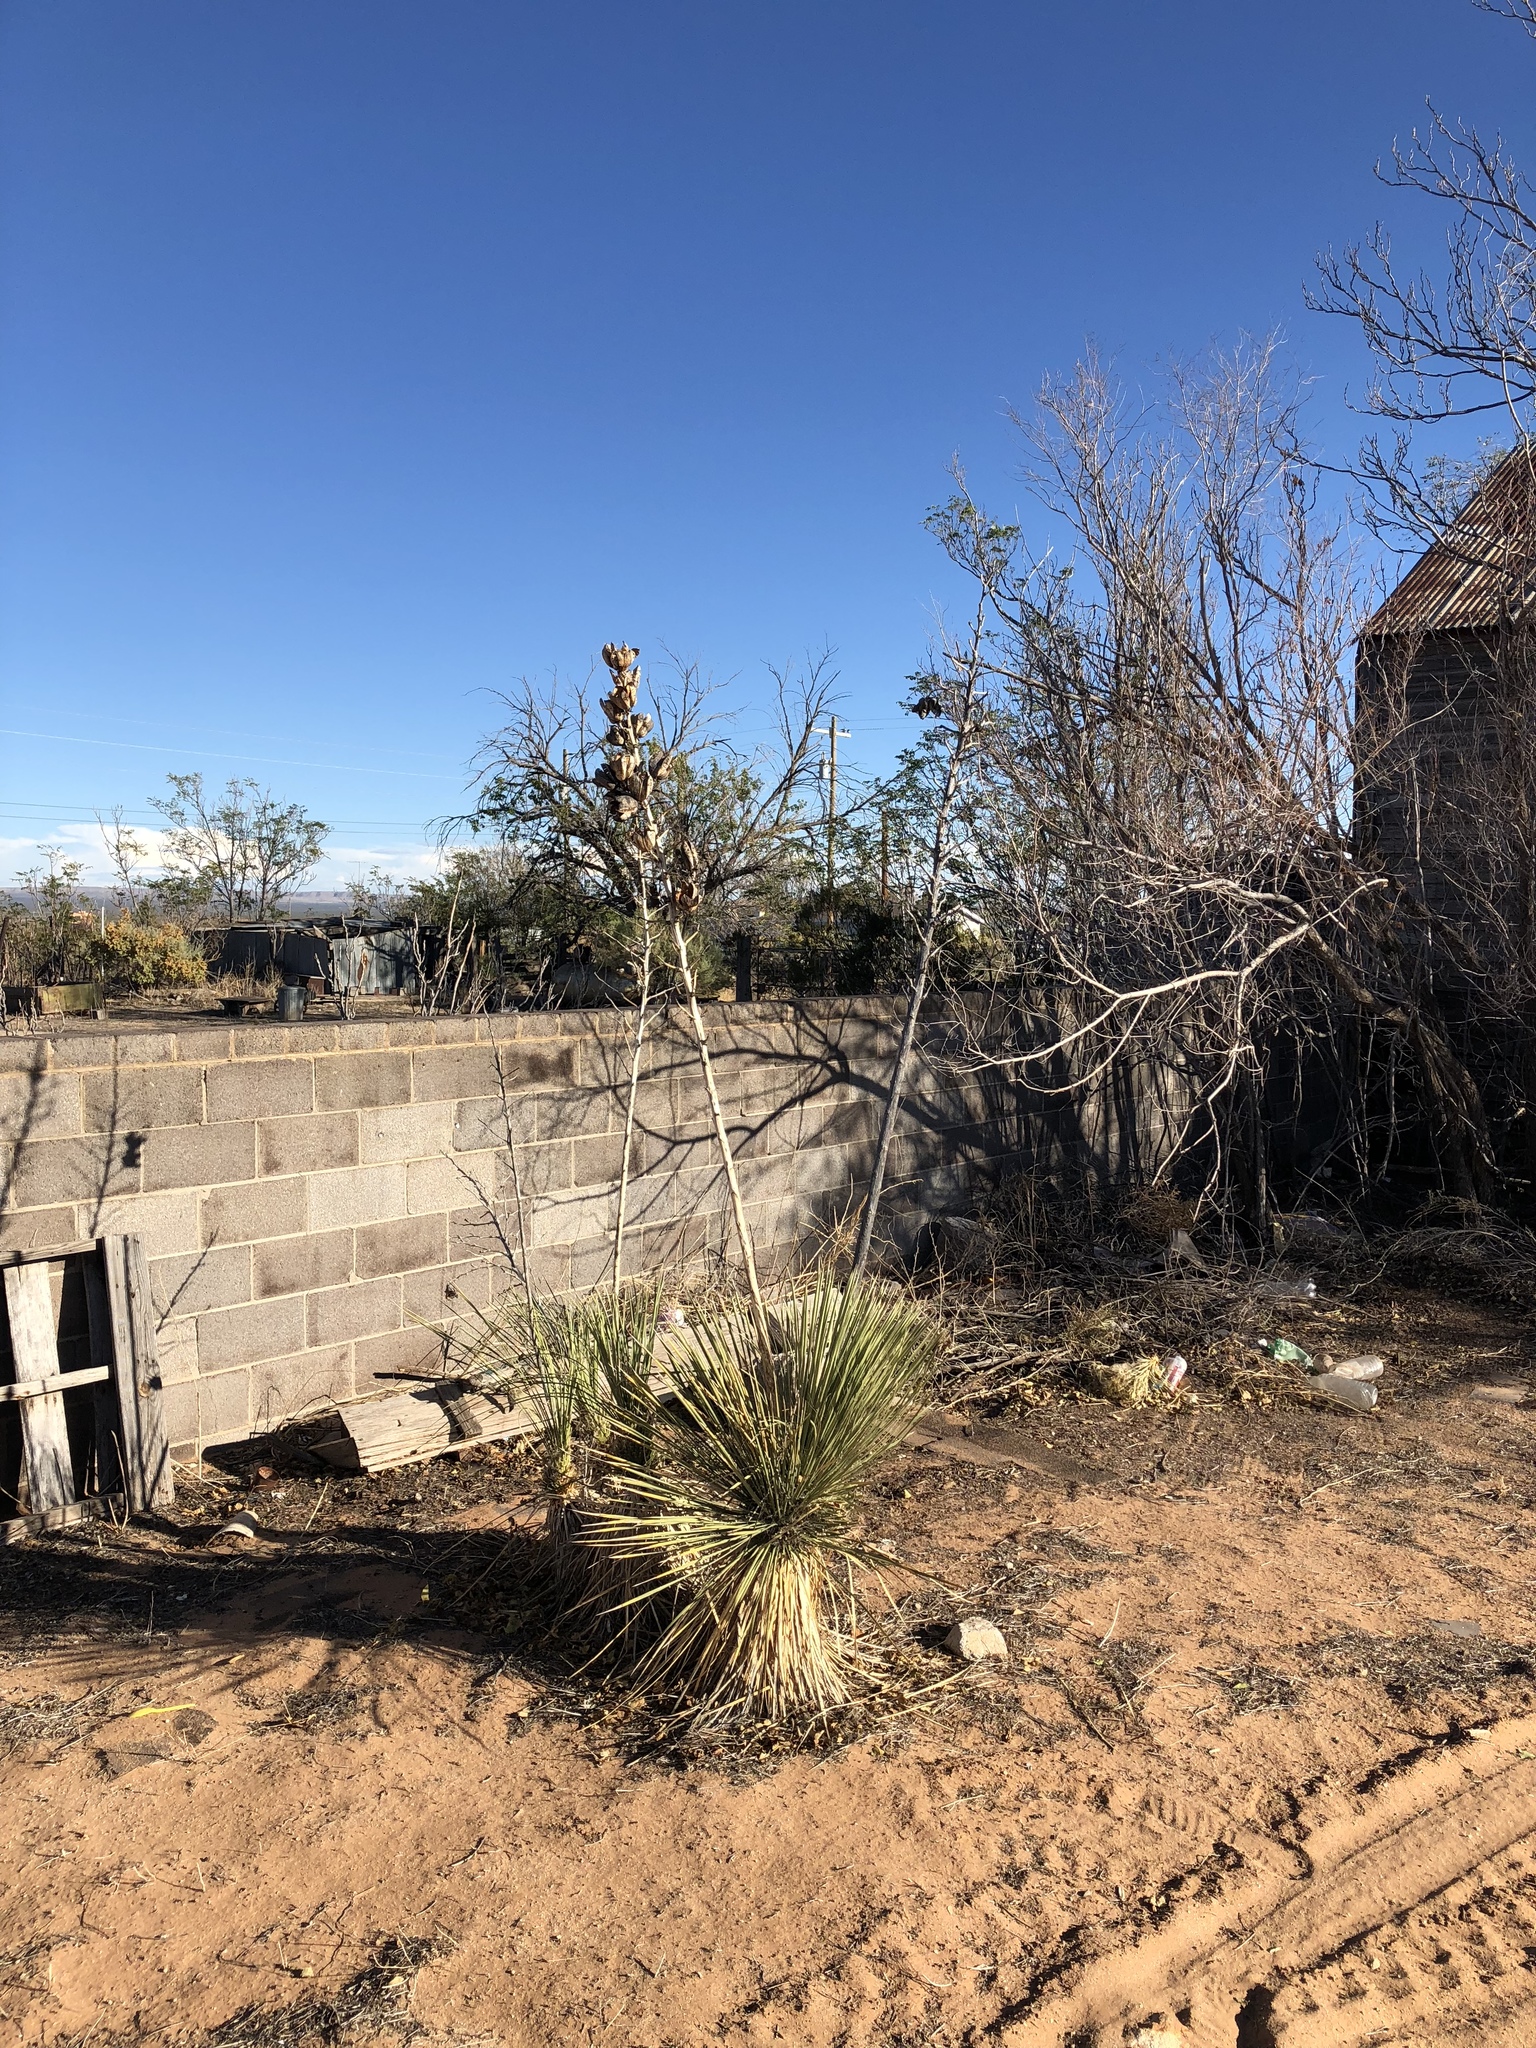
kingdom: Plantae
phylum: Tracheophyta
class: Liliopsida
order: Asparagales
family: Asparagaceae
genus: Yucca
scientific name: Yucca elata
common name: Palmella
